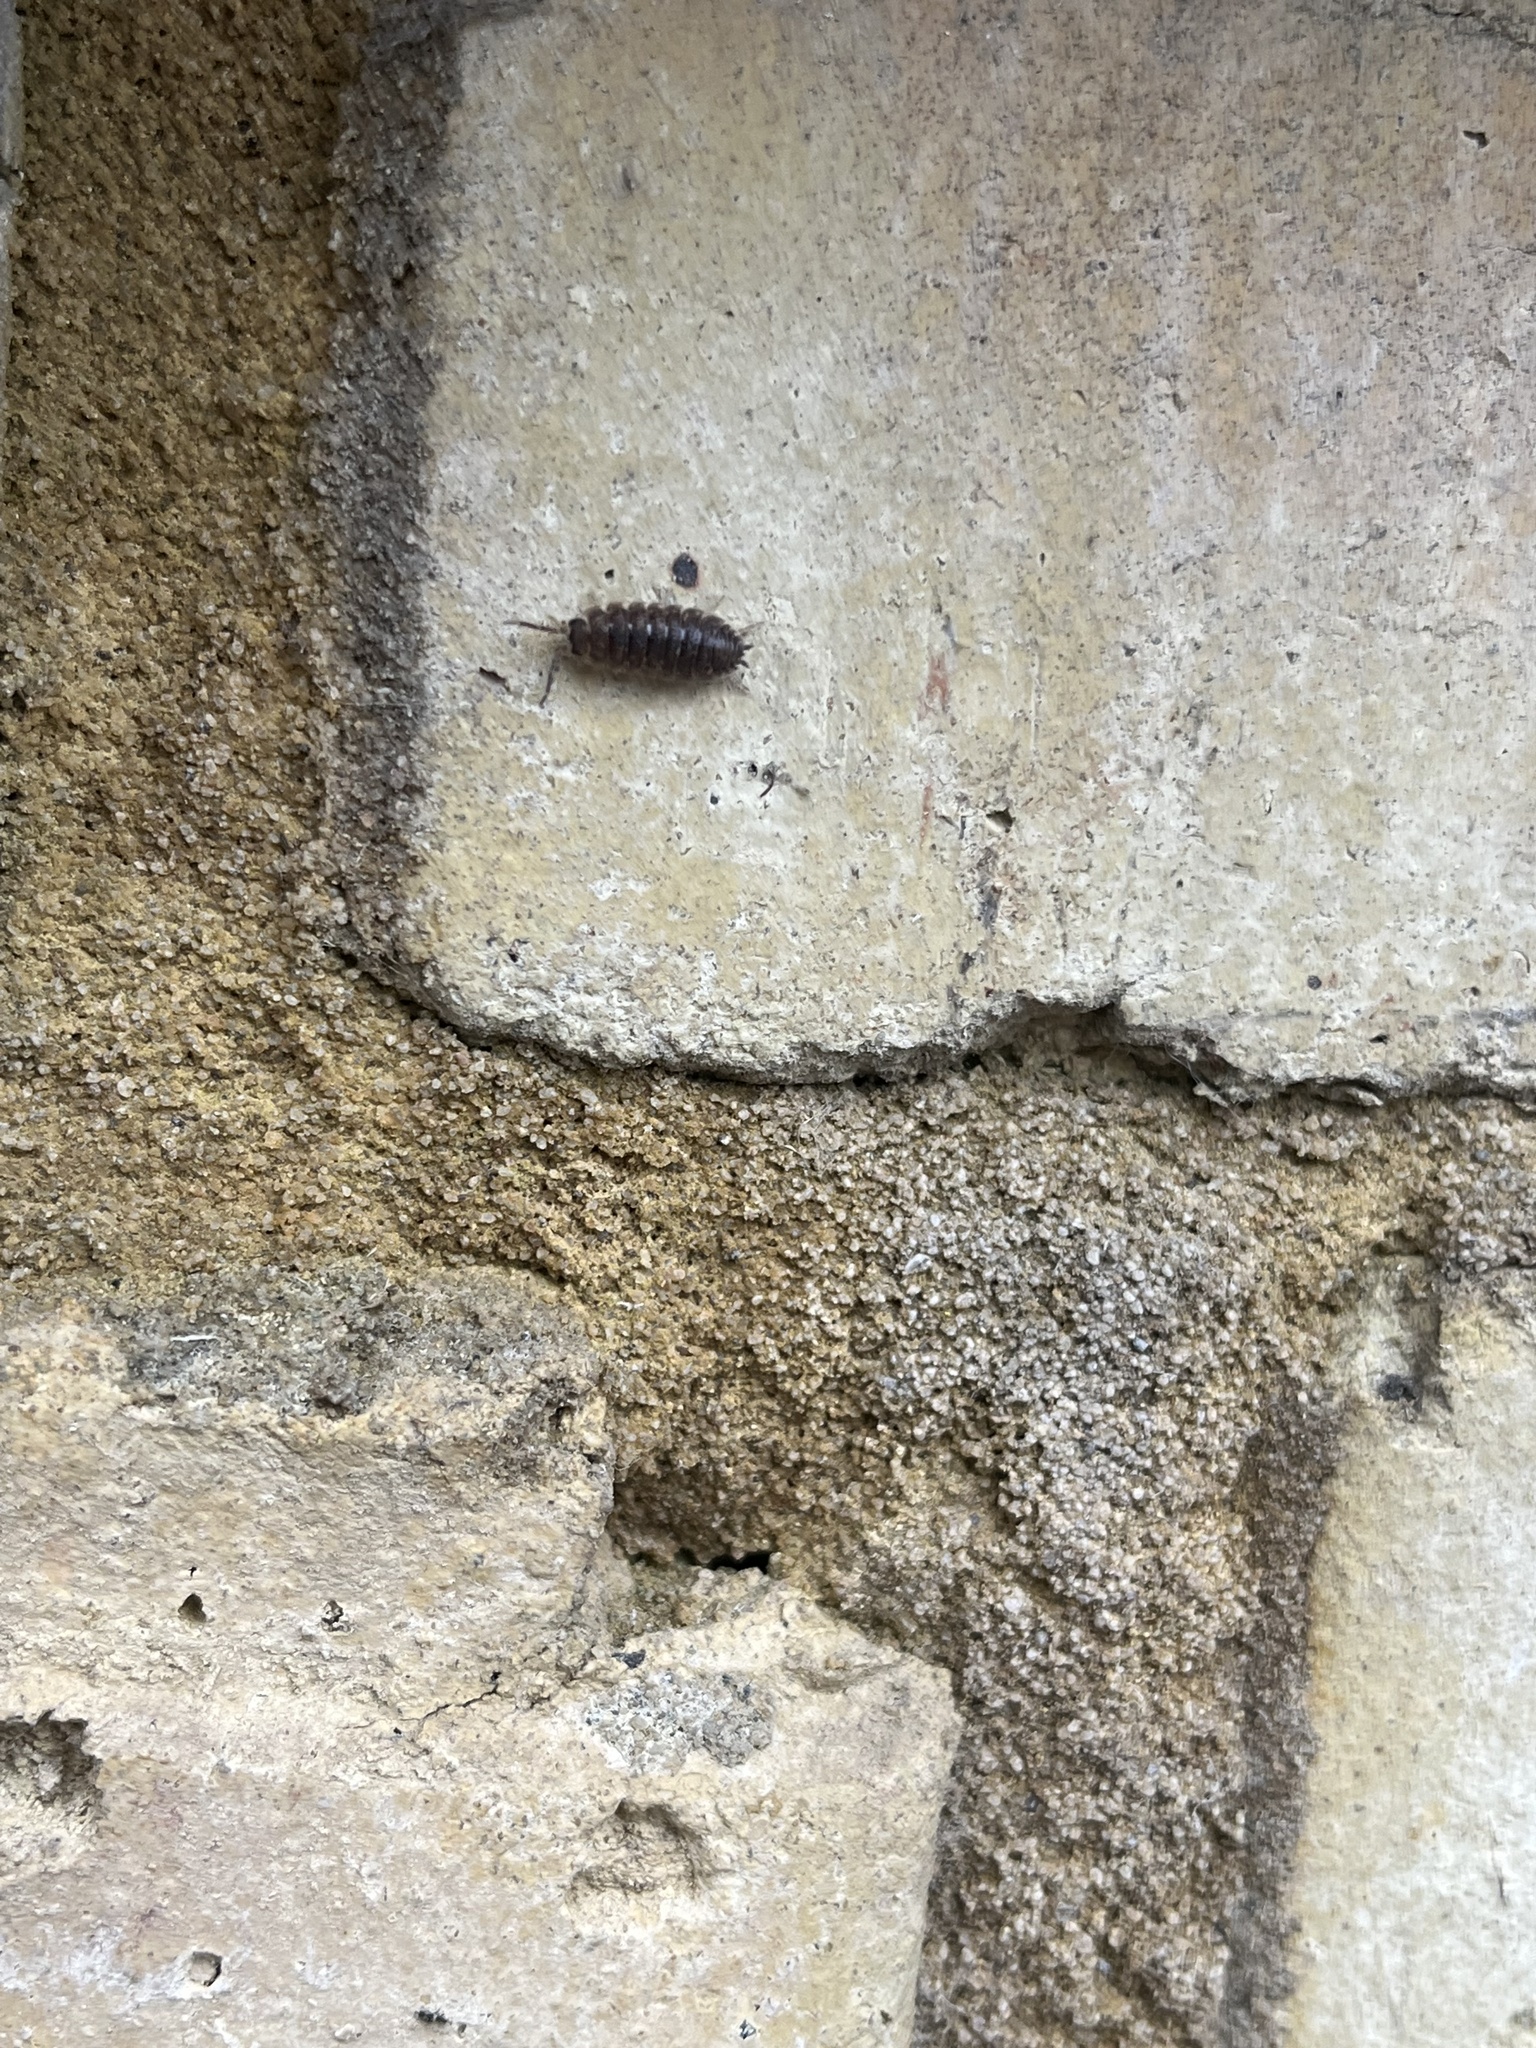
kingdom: Animalia
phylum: Arthropoda
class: Malacostraca
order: Isopoda
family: Porcellionidae
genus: Porcellio
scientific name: Porcellio scaber
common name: Common rough woodlouse
